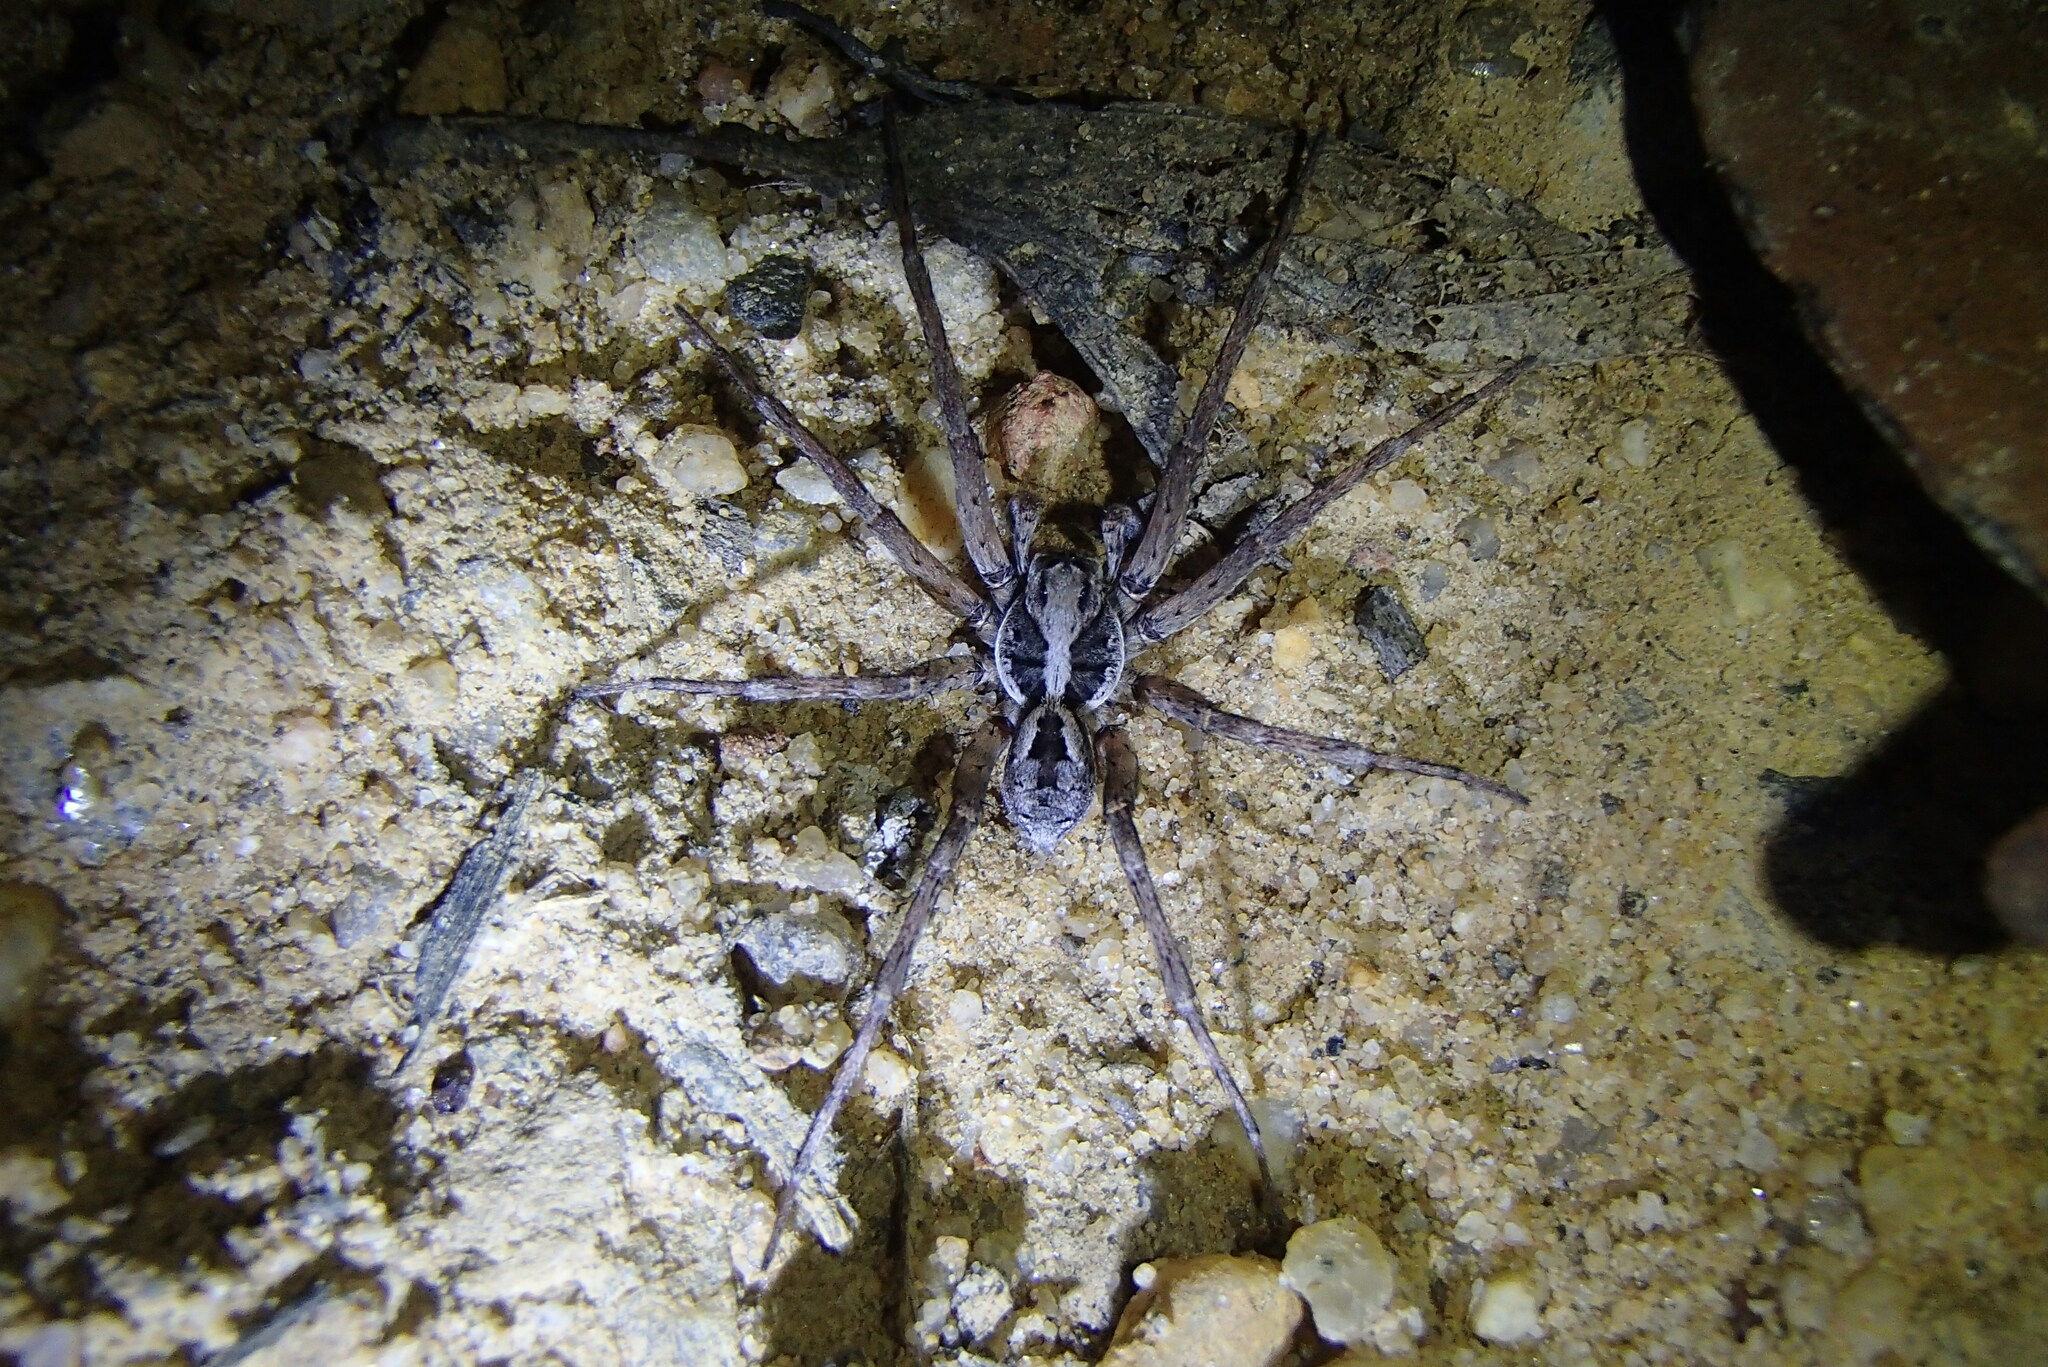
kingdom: Animalia
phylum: Arthropoda
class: Arachnida
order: Araneae
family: Lycosidae
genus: Venator
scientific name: Venator spenceri
